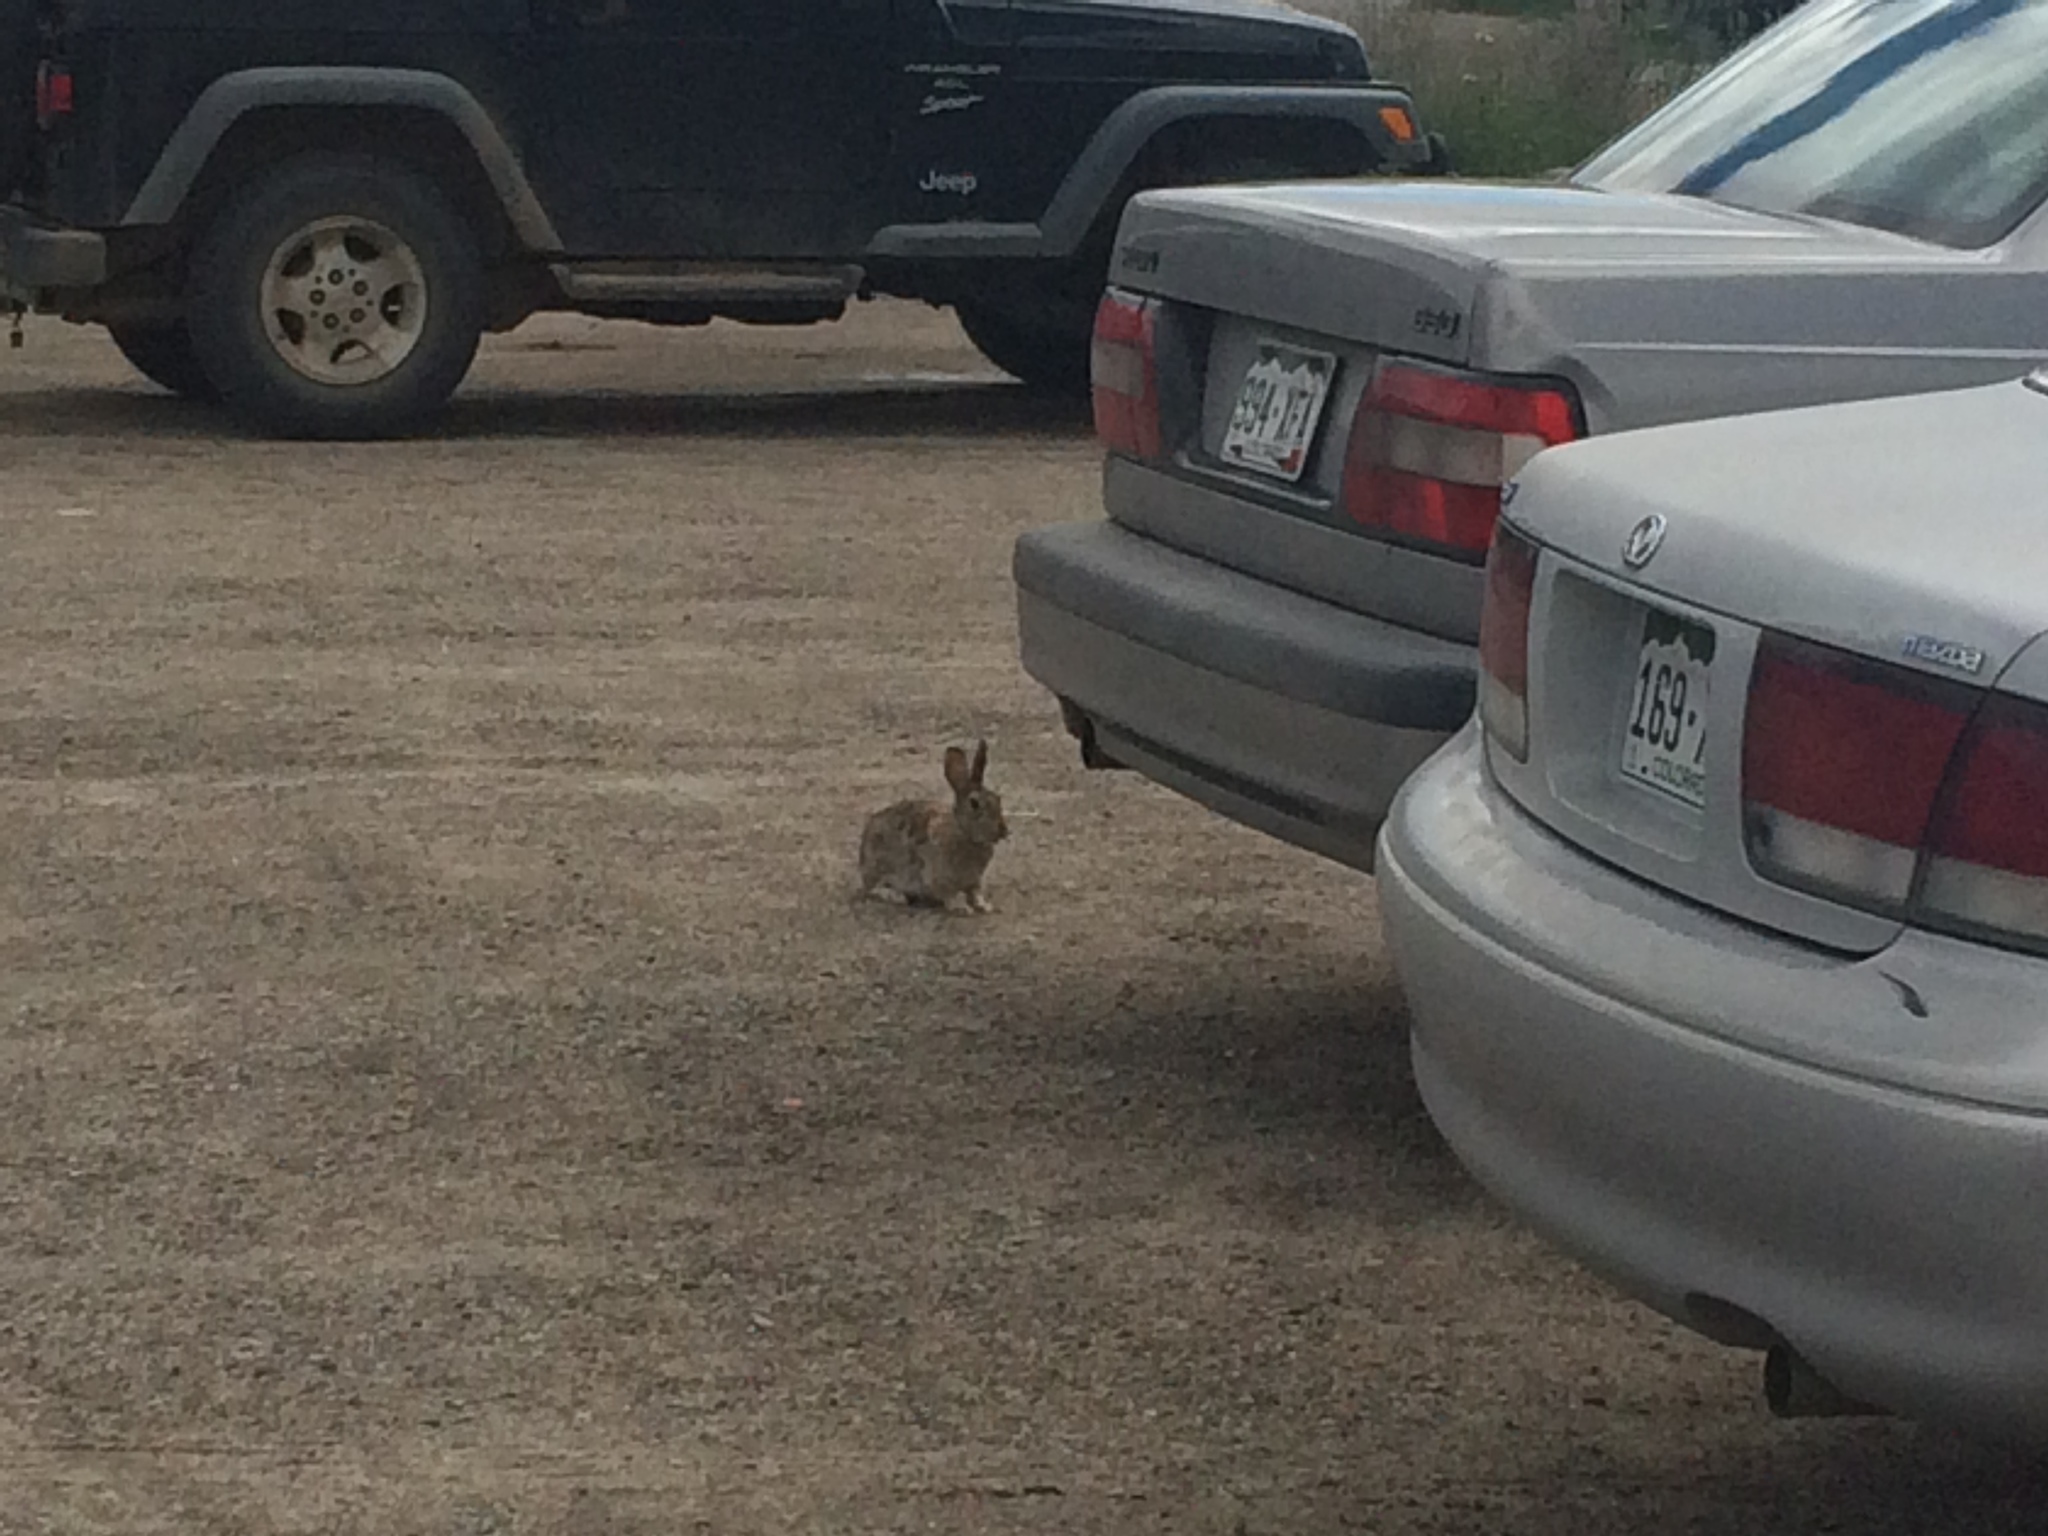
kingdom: Animalia
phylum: Chordata
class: Mammalia
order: Lagomorpha
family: Leporidae
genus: Sylvilagus
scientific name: Sylvilagus nuttallii
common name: Mountain cottontail
